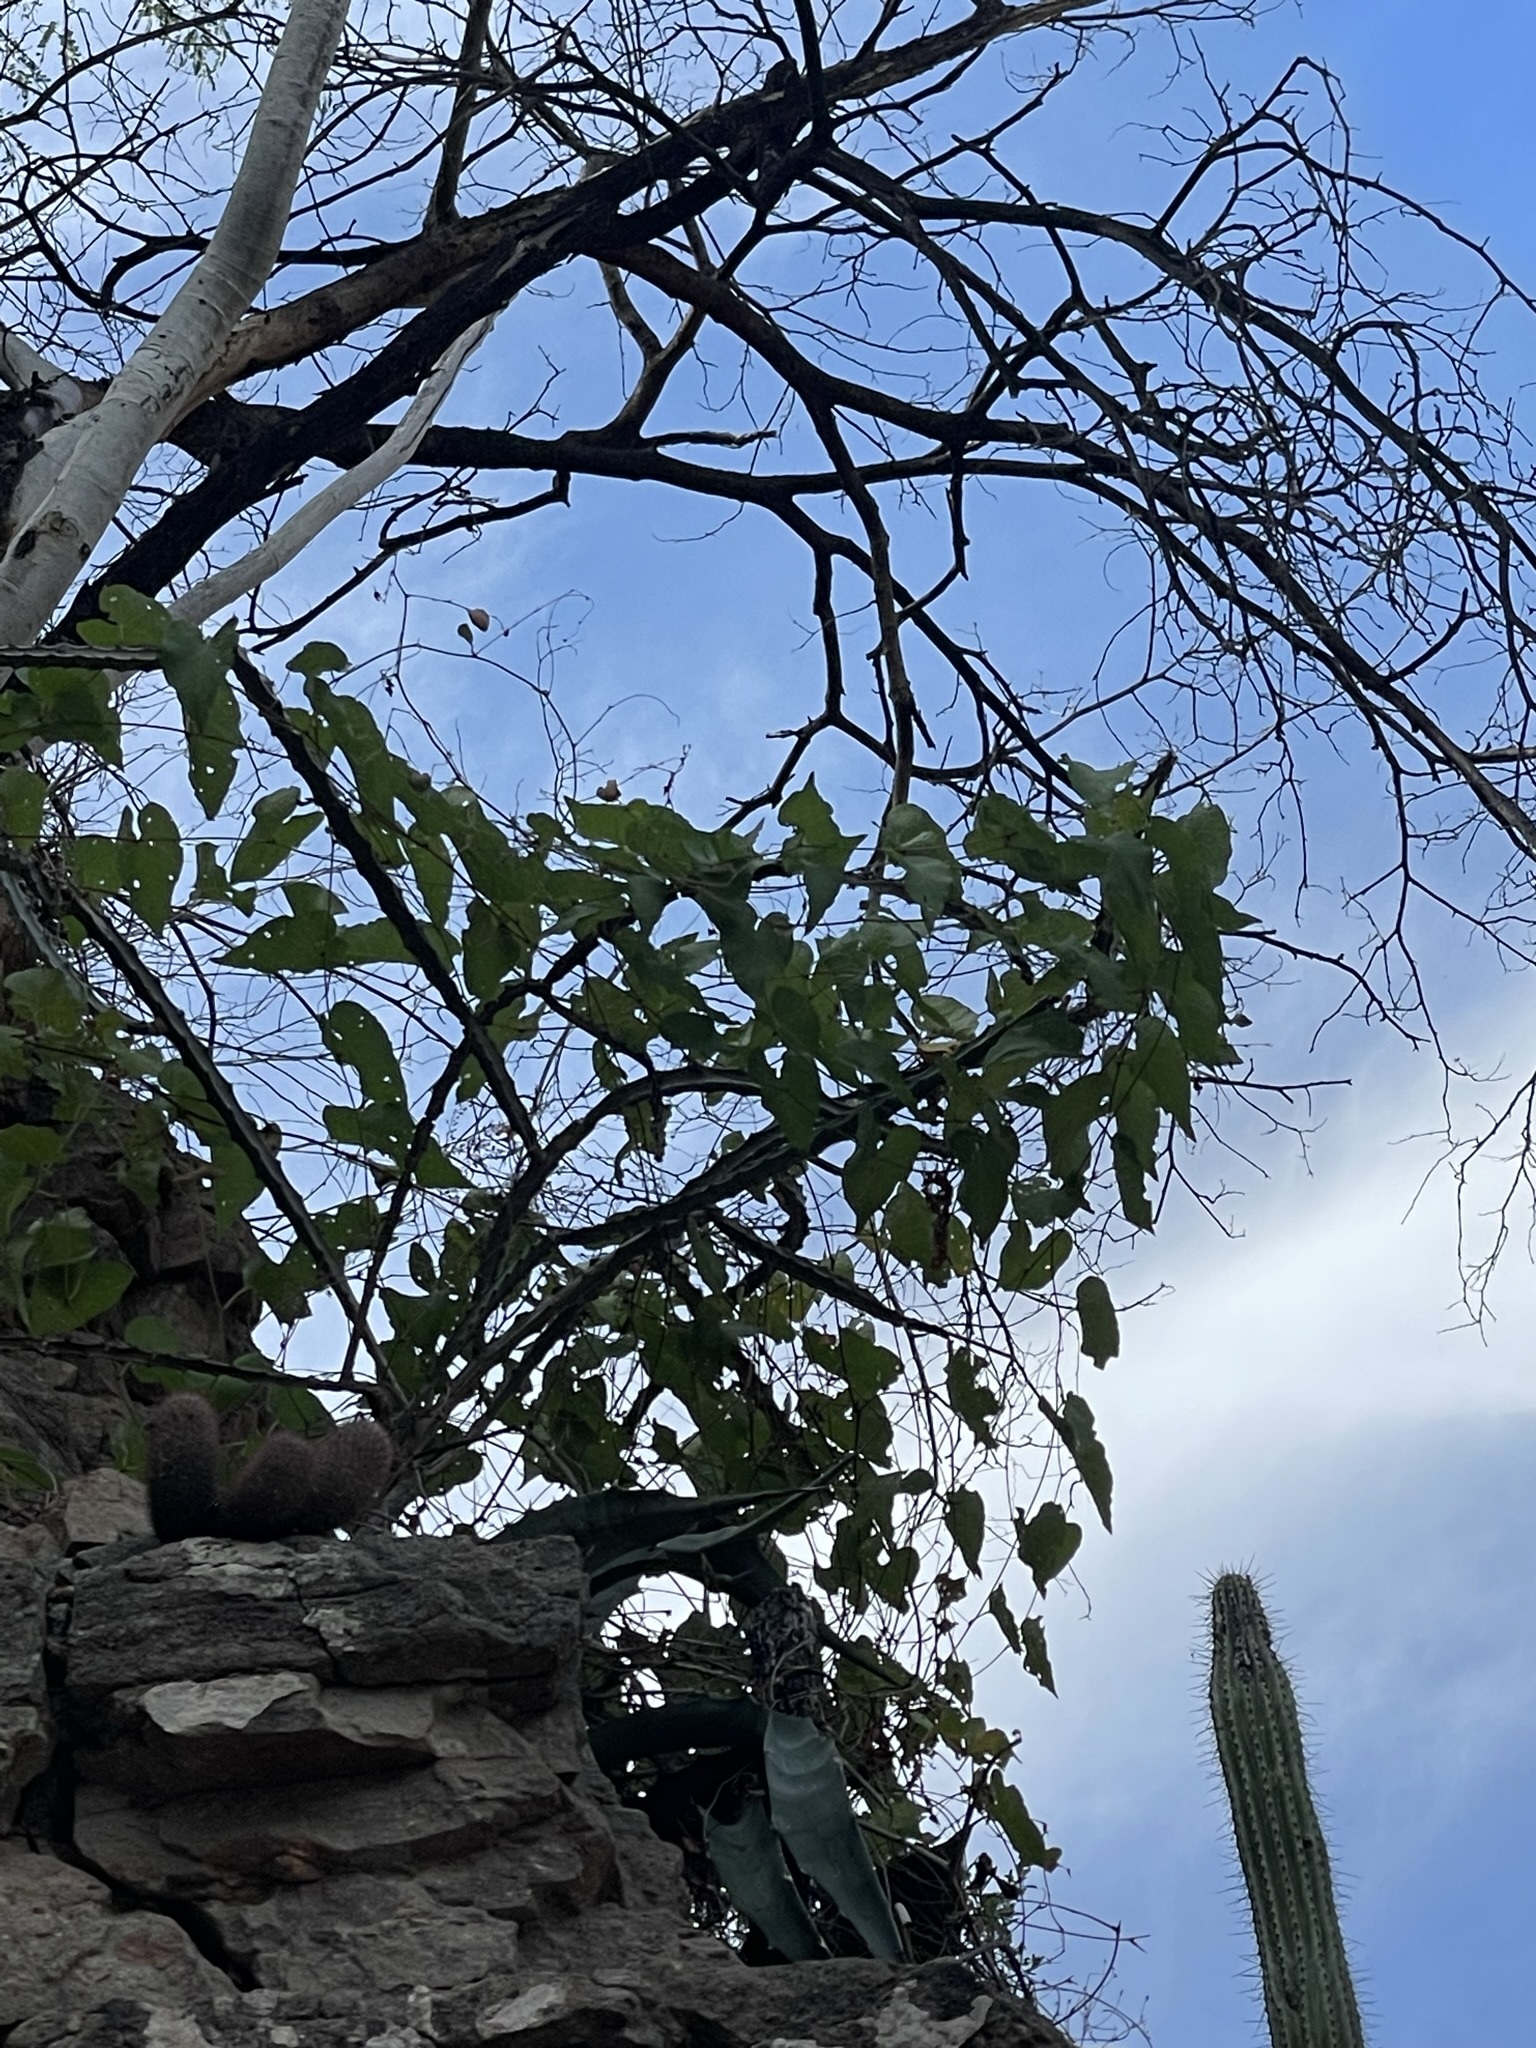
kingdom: Plantae
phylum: Tracheophyta
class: Liliopsida
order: Asparagales
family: Asparagaceae
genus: Agave
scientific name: Agave sobria
